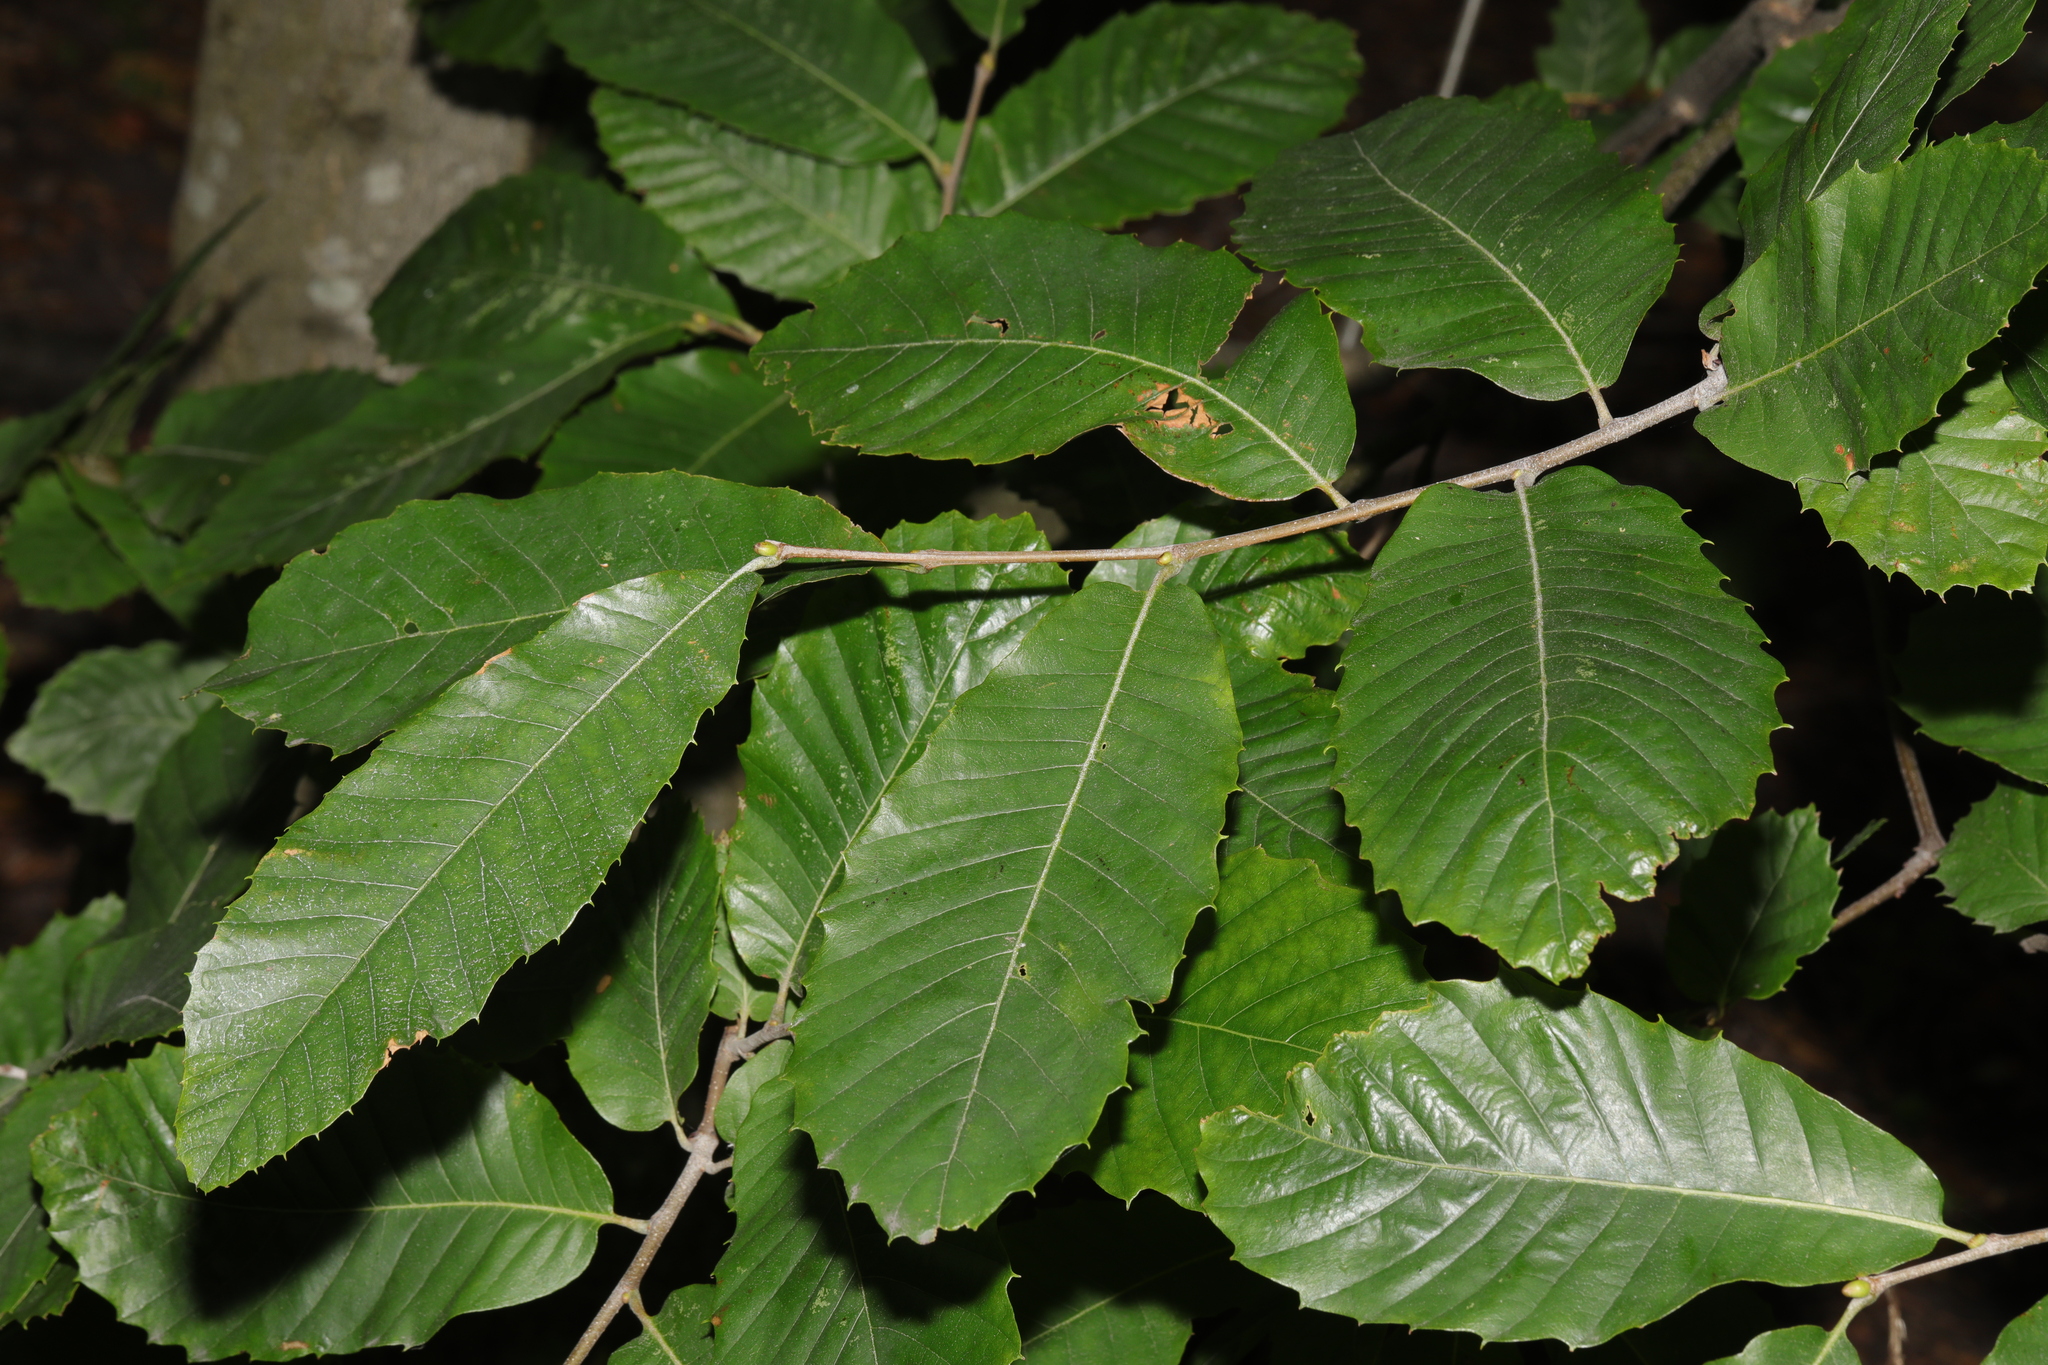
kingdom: Plantae
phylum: Tracheophyta
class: Magnoliopsida
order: Fagales
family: Fagaceae
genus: Castanea
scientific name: Castanea sativa
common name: Sweet chestnut
